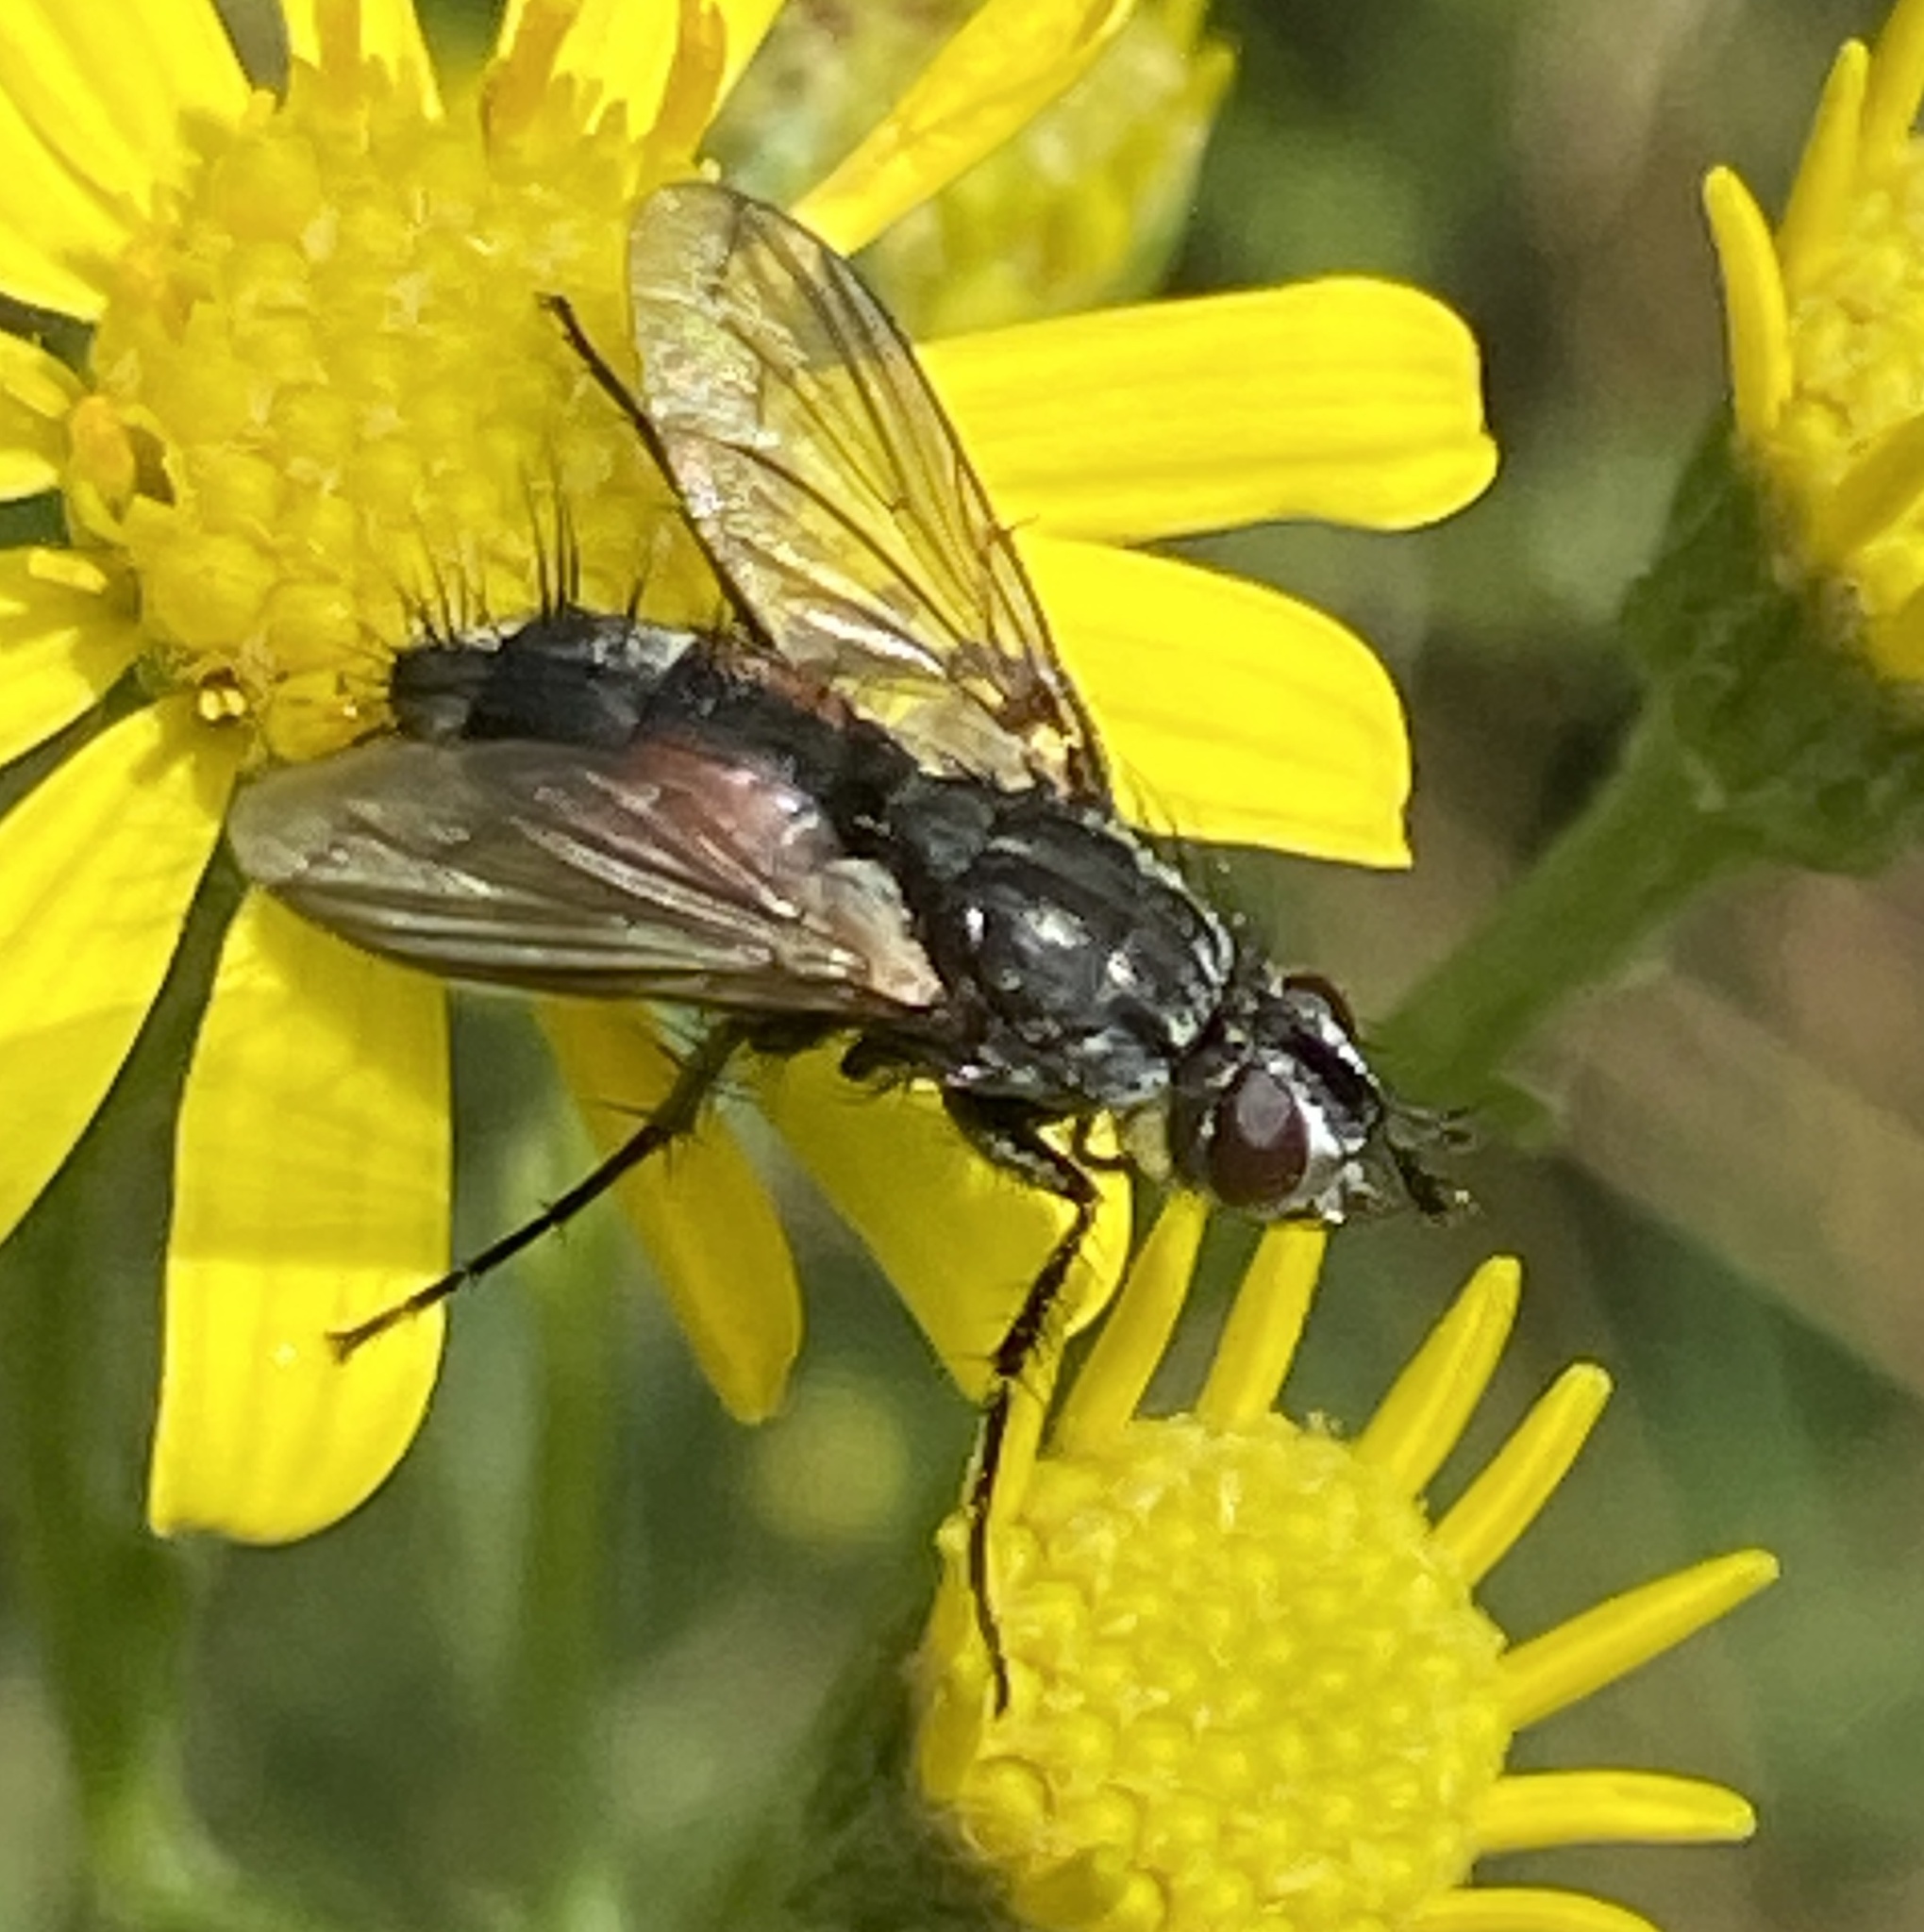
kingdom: Animalia
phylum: Arthropoda
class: Insecta
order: Diptera
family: Tachinidae
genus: Eriothrix
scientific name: Eriothrix rufomaculatus
